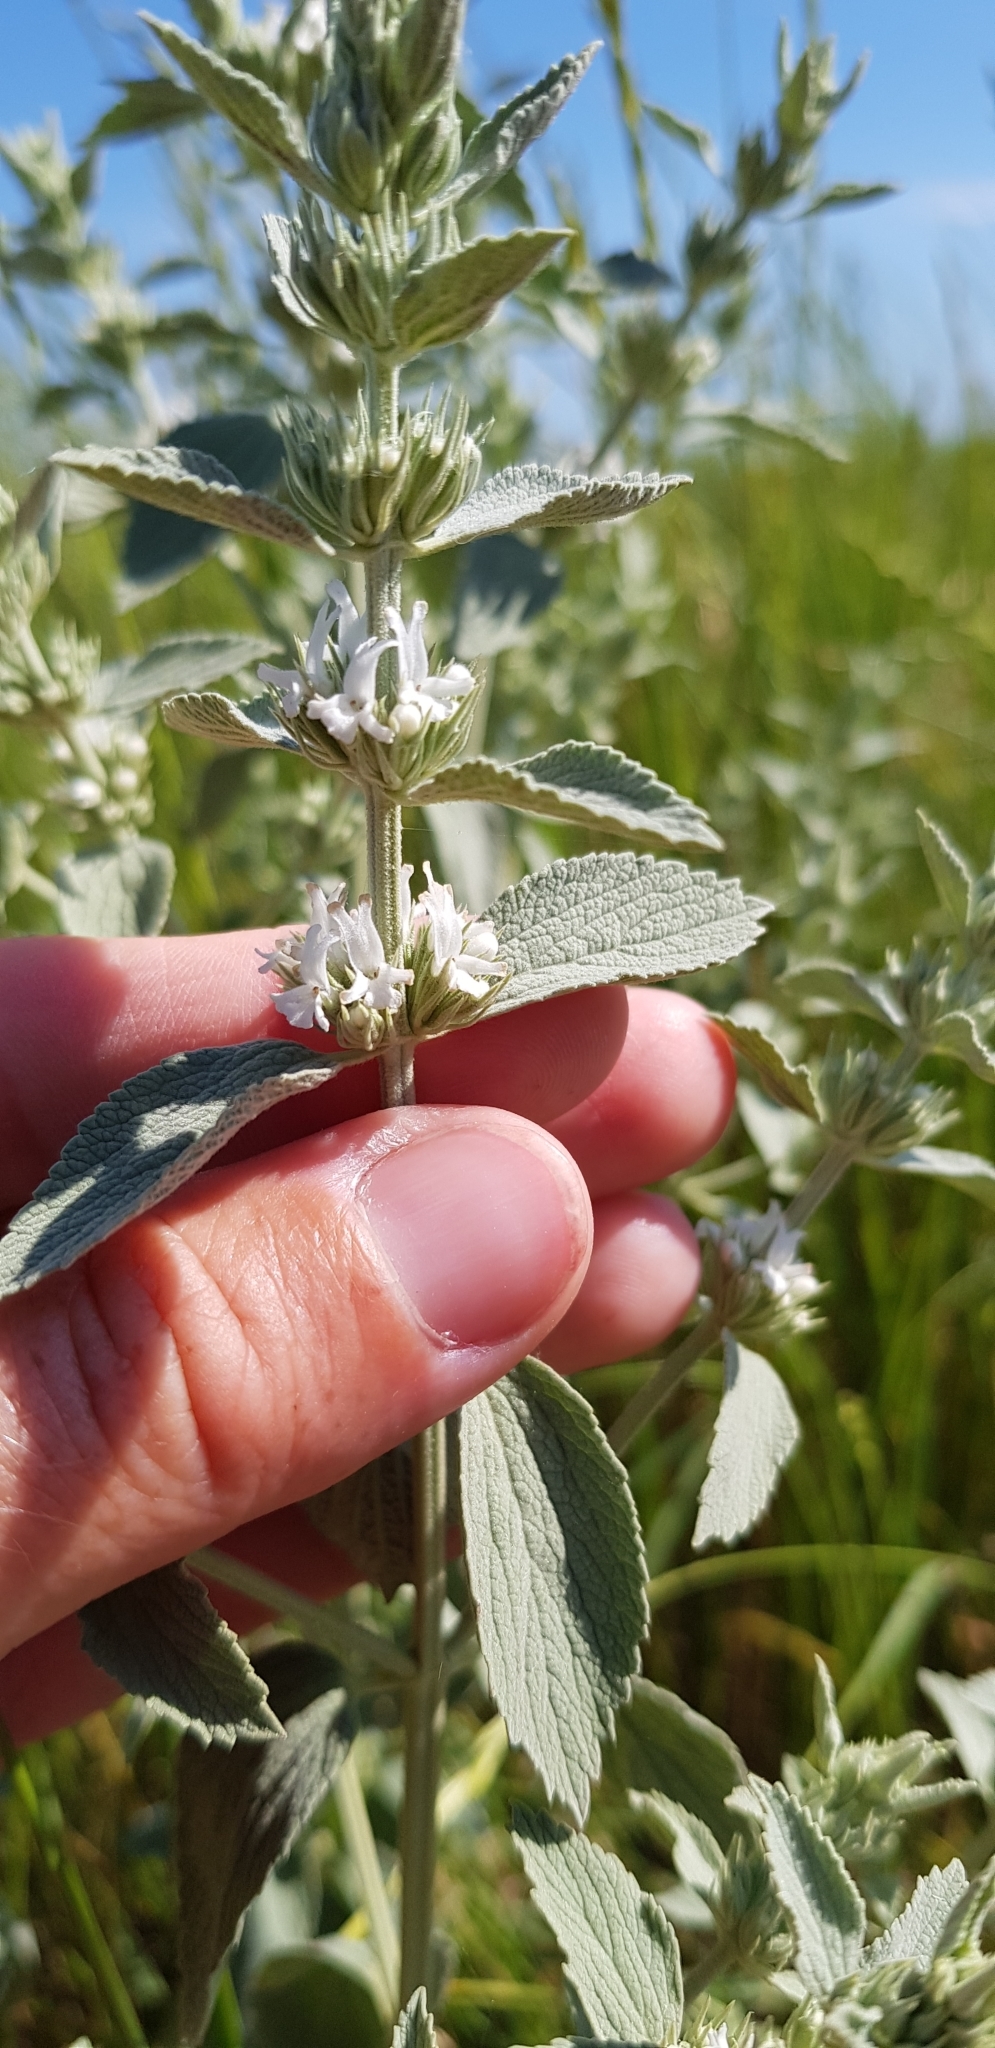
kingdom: Plantae
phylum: Tracheophyta
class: Magnoliopsida
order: Lamiales
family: Lamiaceae
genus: Marrubium
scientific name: Marrubium peregrinum
